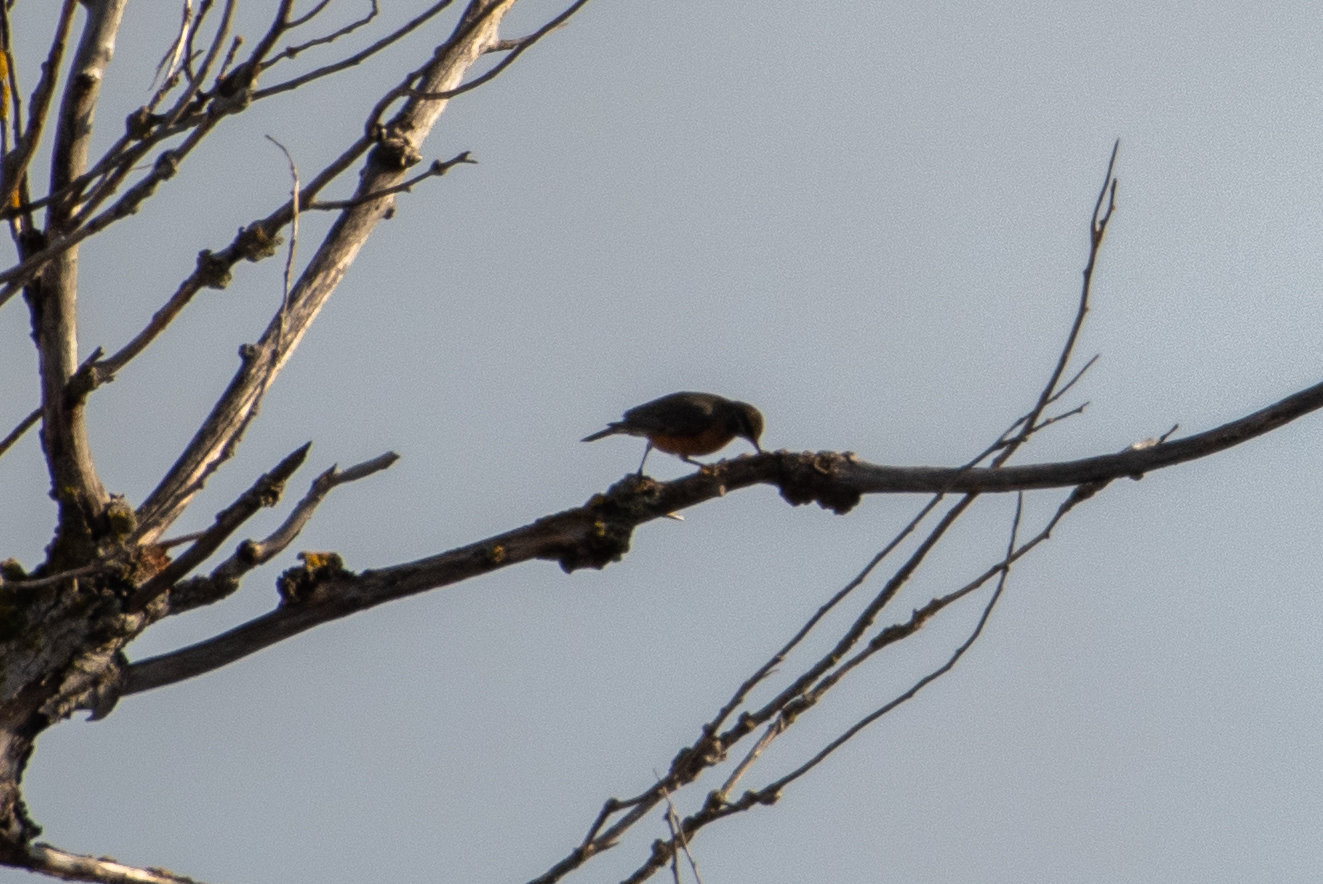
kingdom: Animalia
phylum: Chordata
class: Aves
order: Passeriformes
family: Turdidae
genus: Turdus
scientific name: Turdus migratorius
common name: American robin
